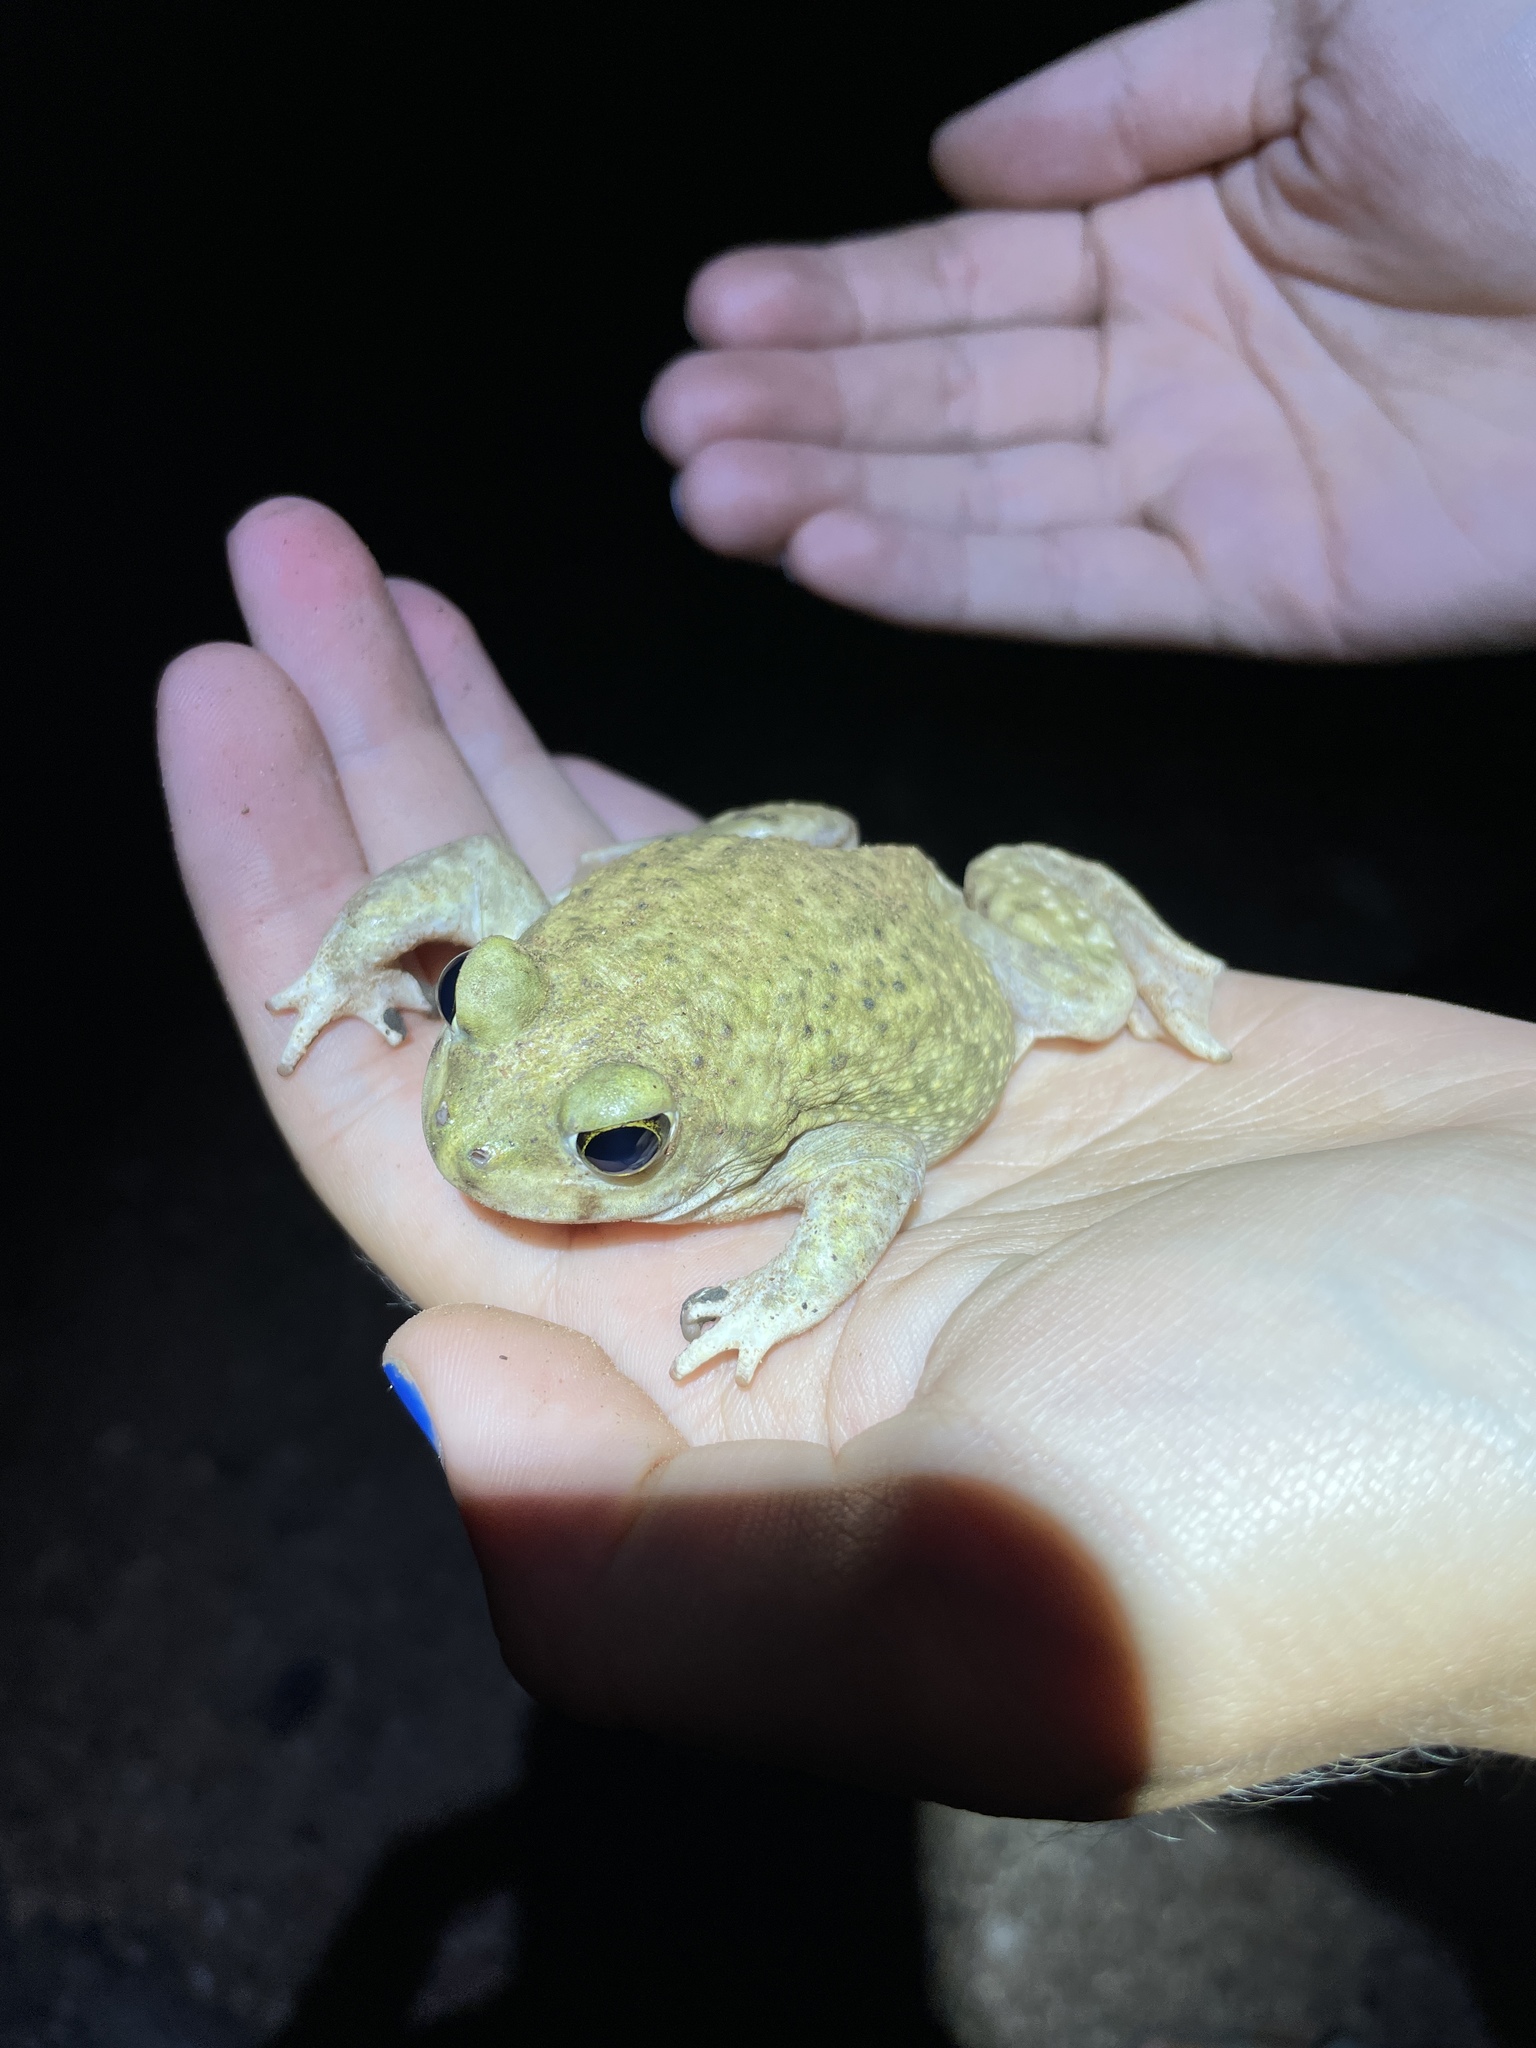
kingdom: Animalia
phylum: Chordata
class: Amphibia
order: Anura
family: Scaphiopodidae
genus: Scaphiopus
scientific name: Scaphiopus couchii
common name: Couch's spadefoot toad
